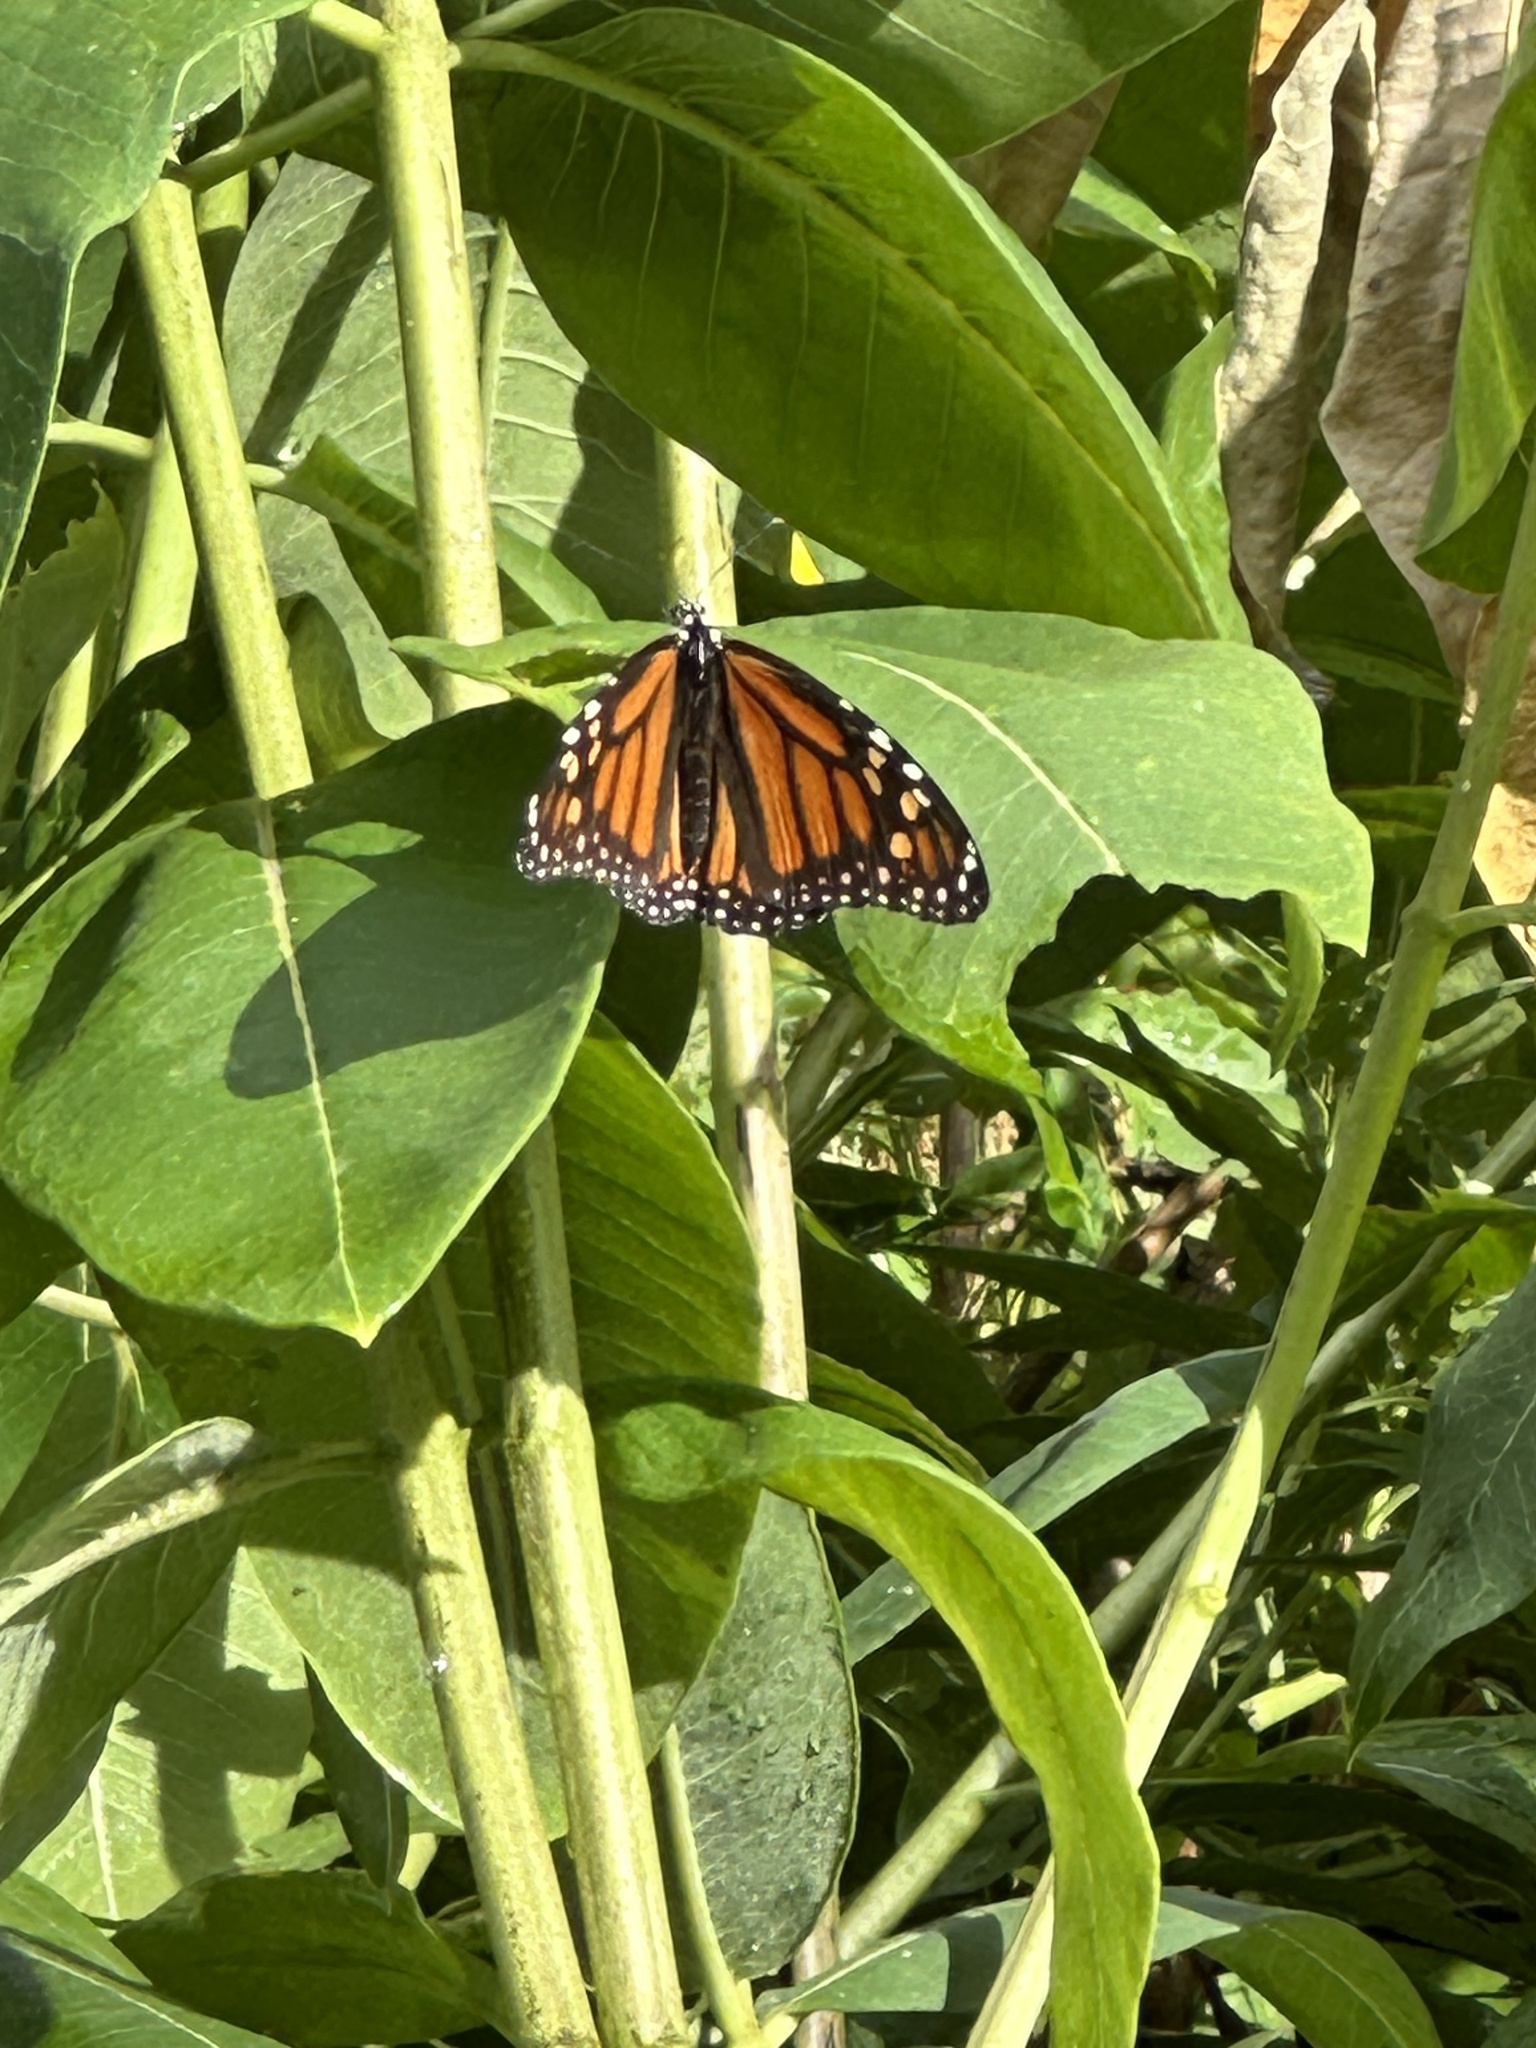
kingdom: Animalia
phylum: Arthropoda
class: Insecta
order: Lepidoptera
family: Nymphalidae
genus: Danaus
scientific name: Danaus plexippus
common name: Monarch
